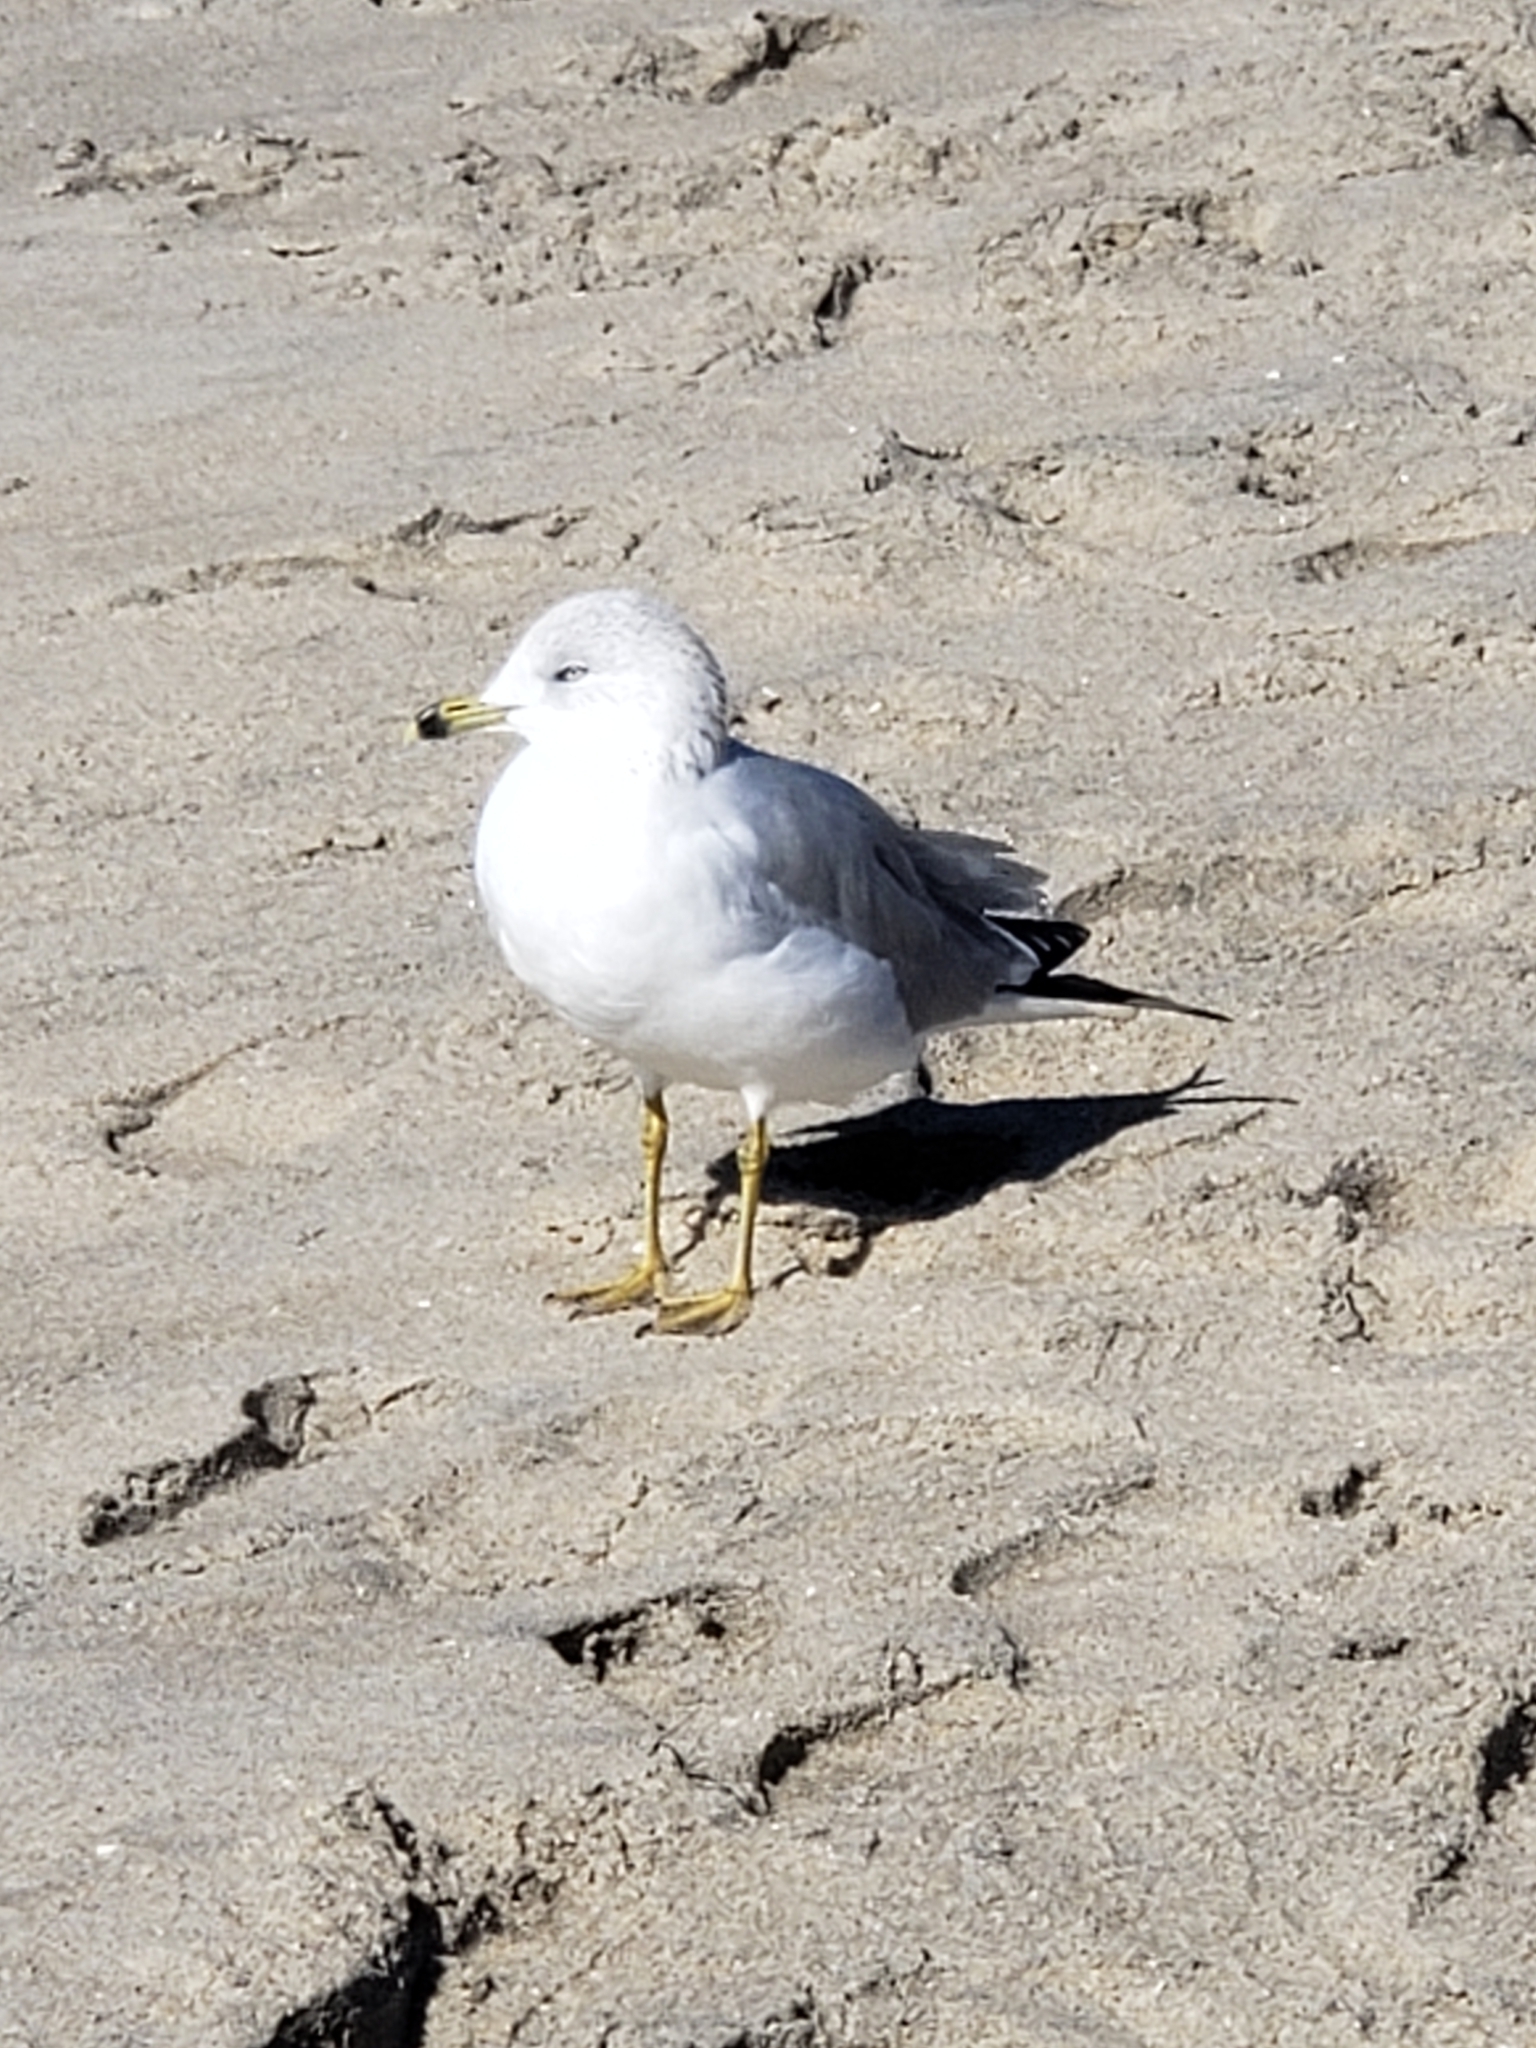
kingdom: Animalia
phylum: Chordata
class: Aves
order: Charadriiformes
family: Laridae
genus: Larus
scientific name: Larus delawarensis
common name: Ring-billed gull
